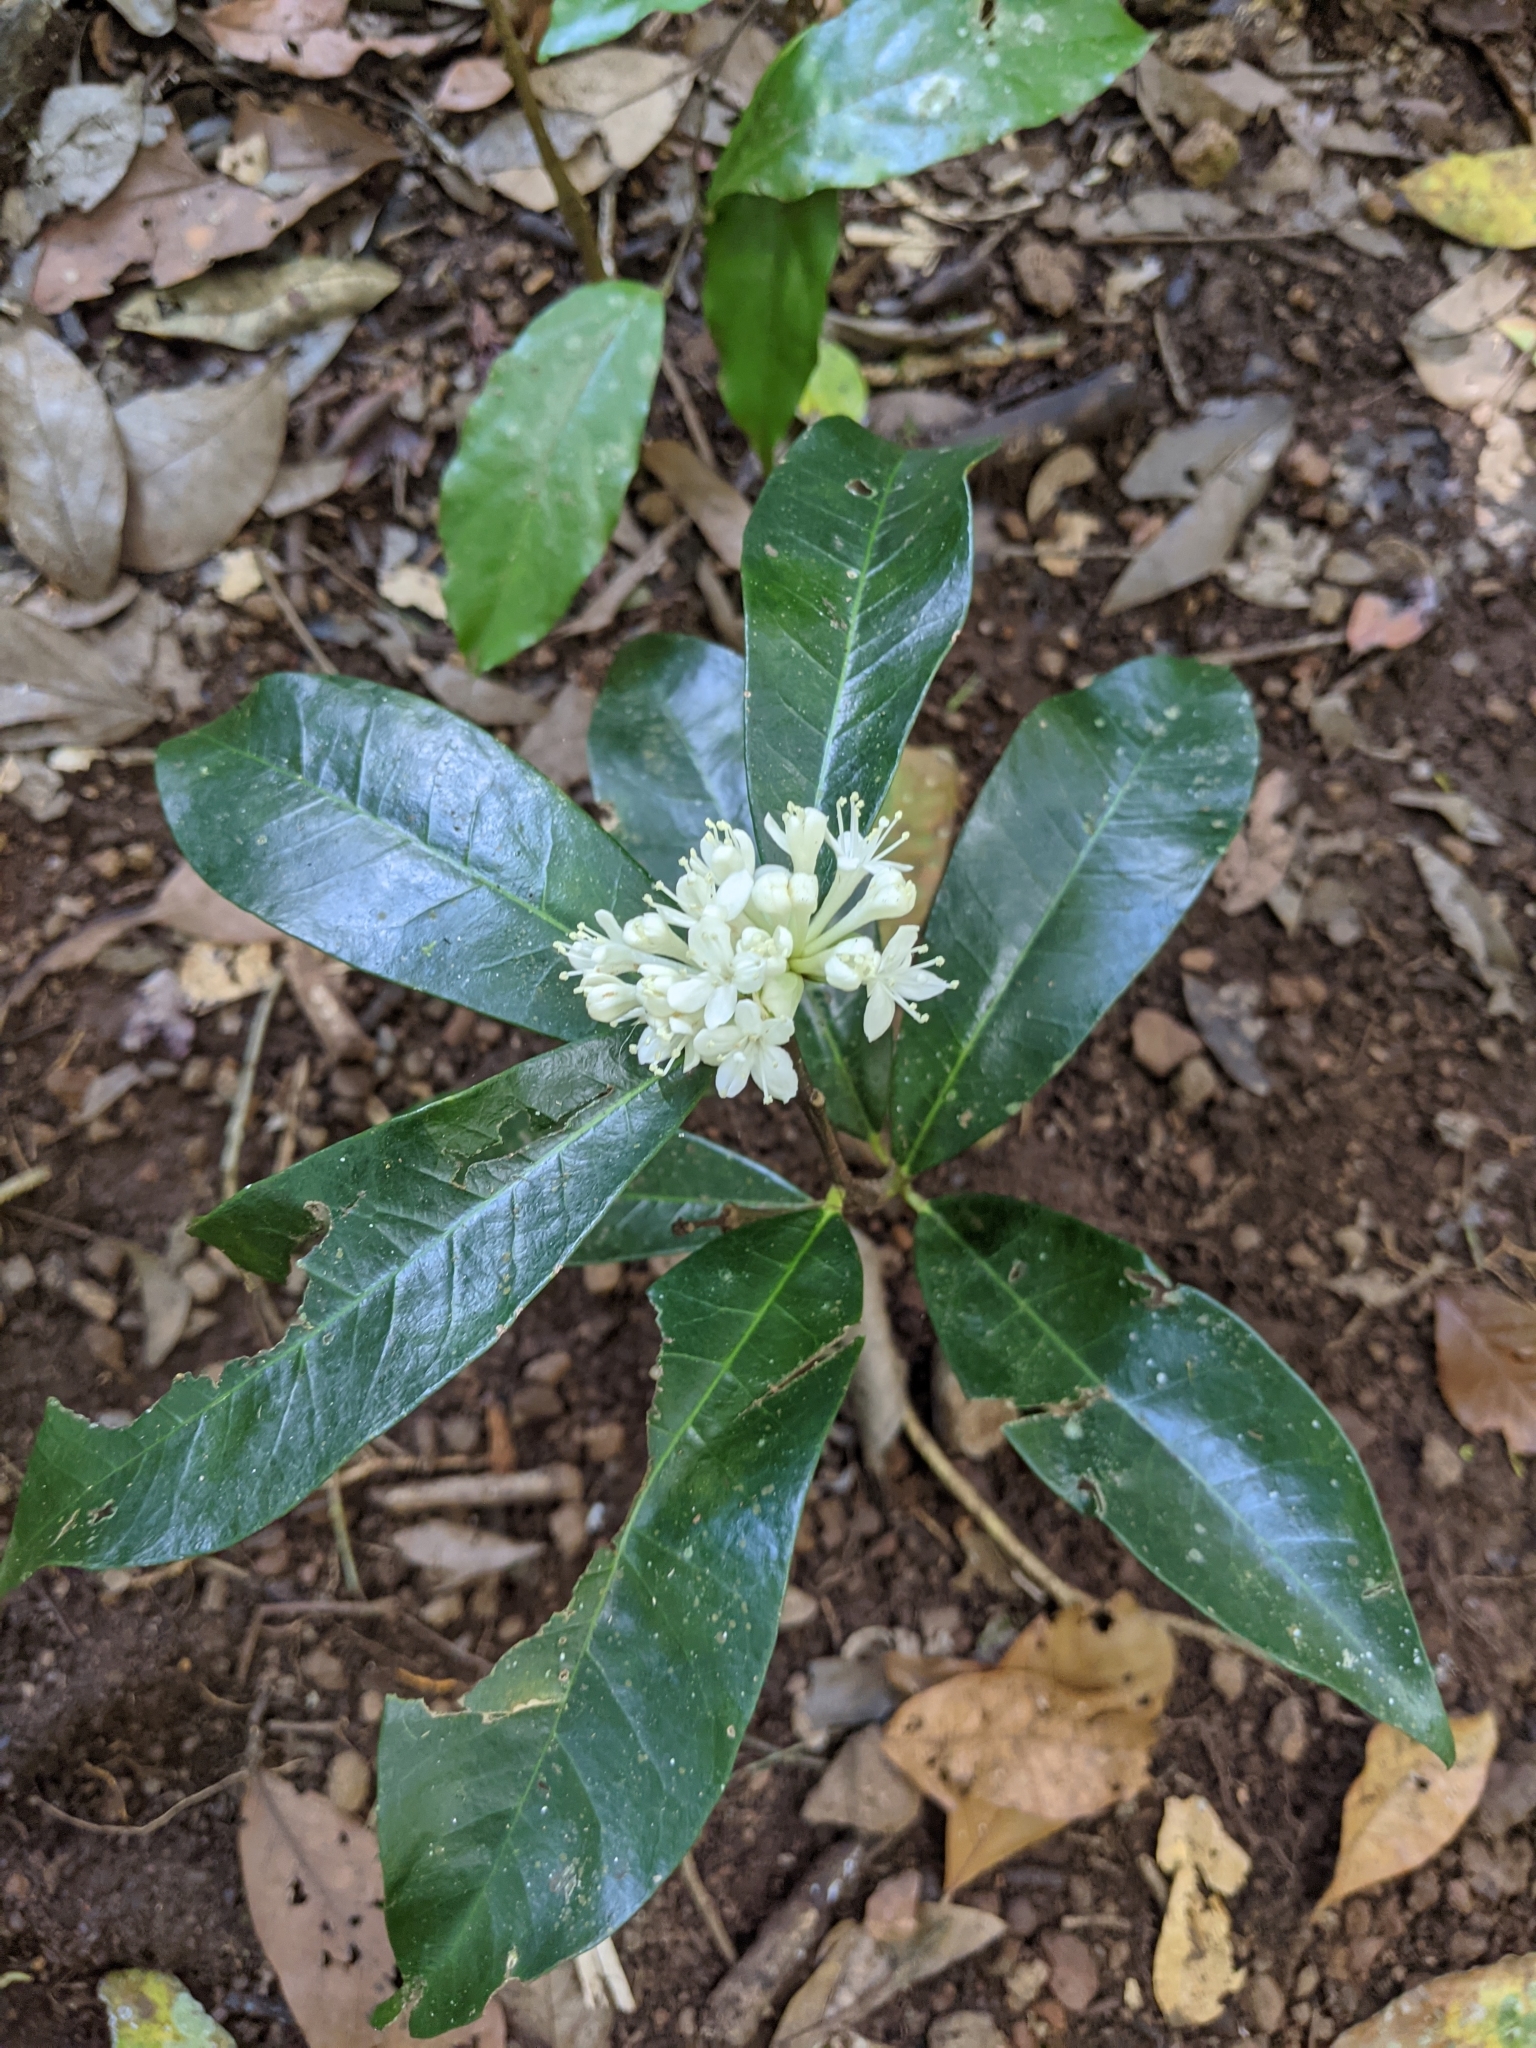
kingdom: Plantae
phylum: Tracheophyta
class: Magnoliopsida
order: Malvales
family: Thymelaeaceae
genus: Phaleria
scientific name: Phaleria octandra
